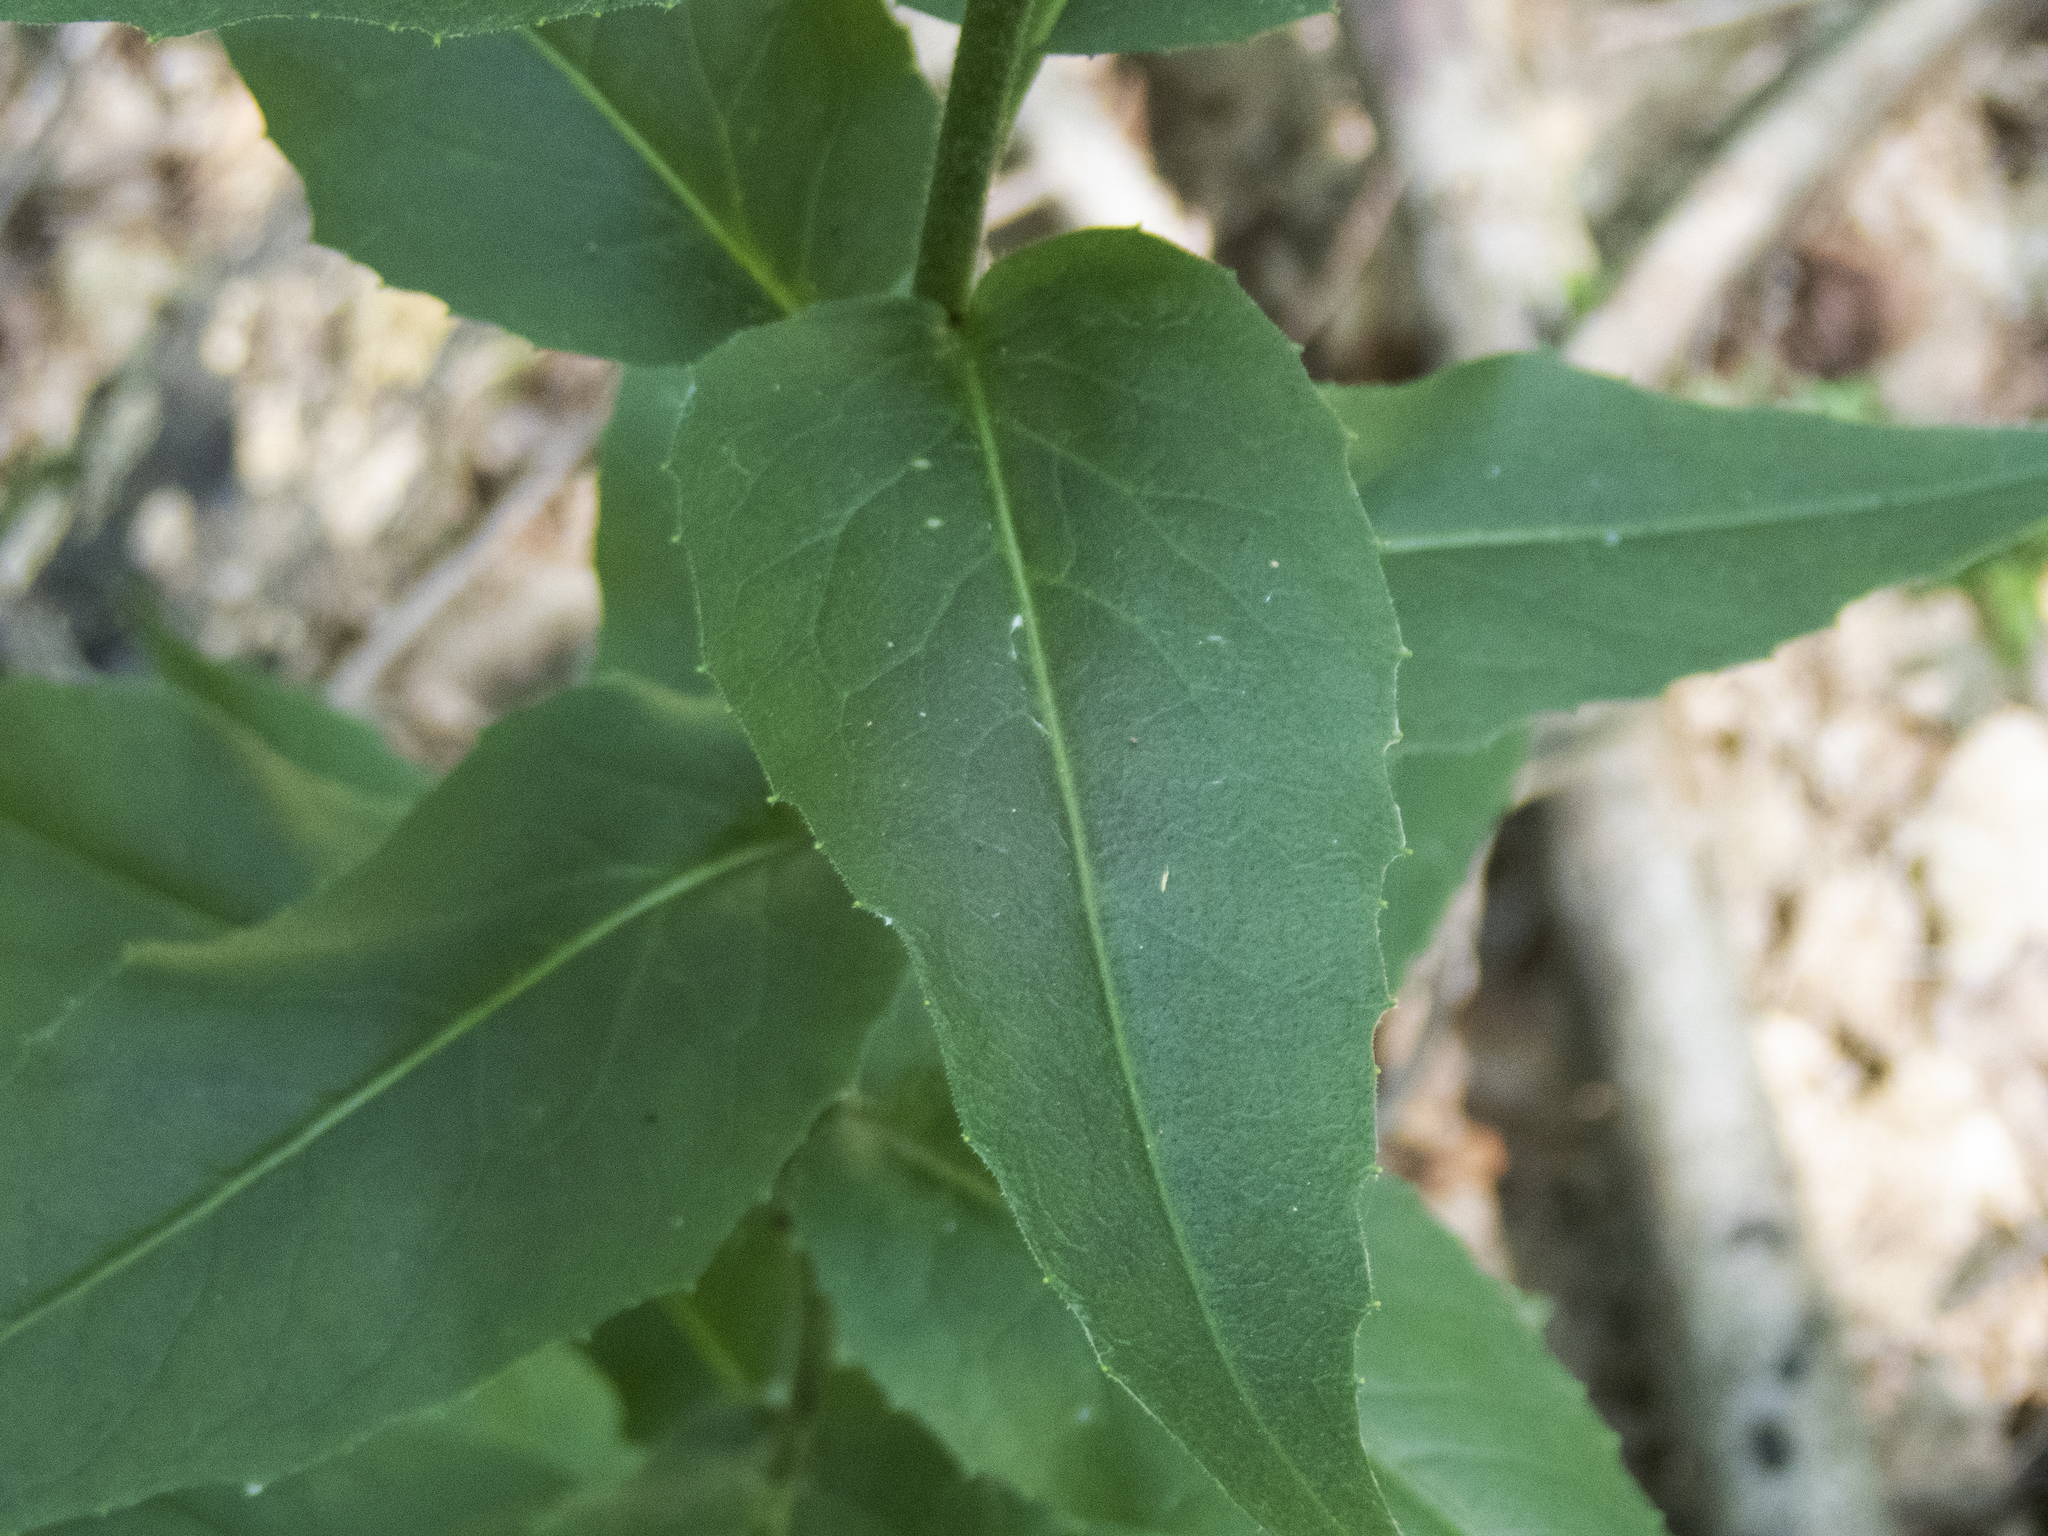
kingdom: Plantae
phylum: Tracheophyta
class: Magnoliopsida
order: Brassicales
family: Brassicaceae
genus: Hesperis
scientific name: Hesperis matronalis
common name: Dame's-violet
